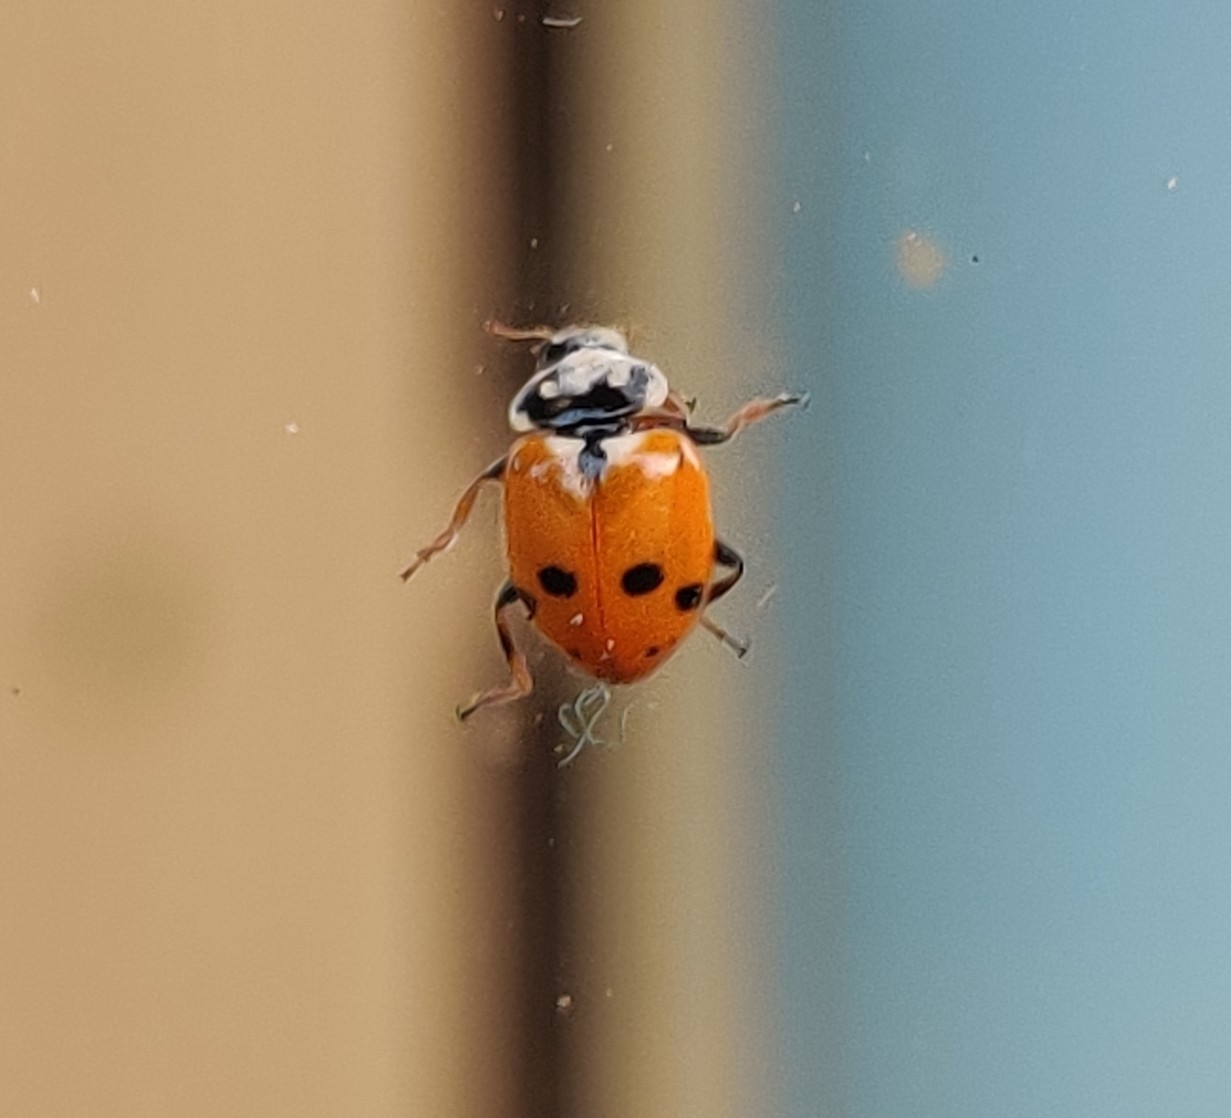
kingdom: Animalia
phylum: Arthropoda
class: Insecta
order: Coleoptera
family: Coccinellidae
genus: Hippodamia
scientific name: Hippodamia variegata
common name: Ladybird beetle
